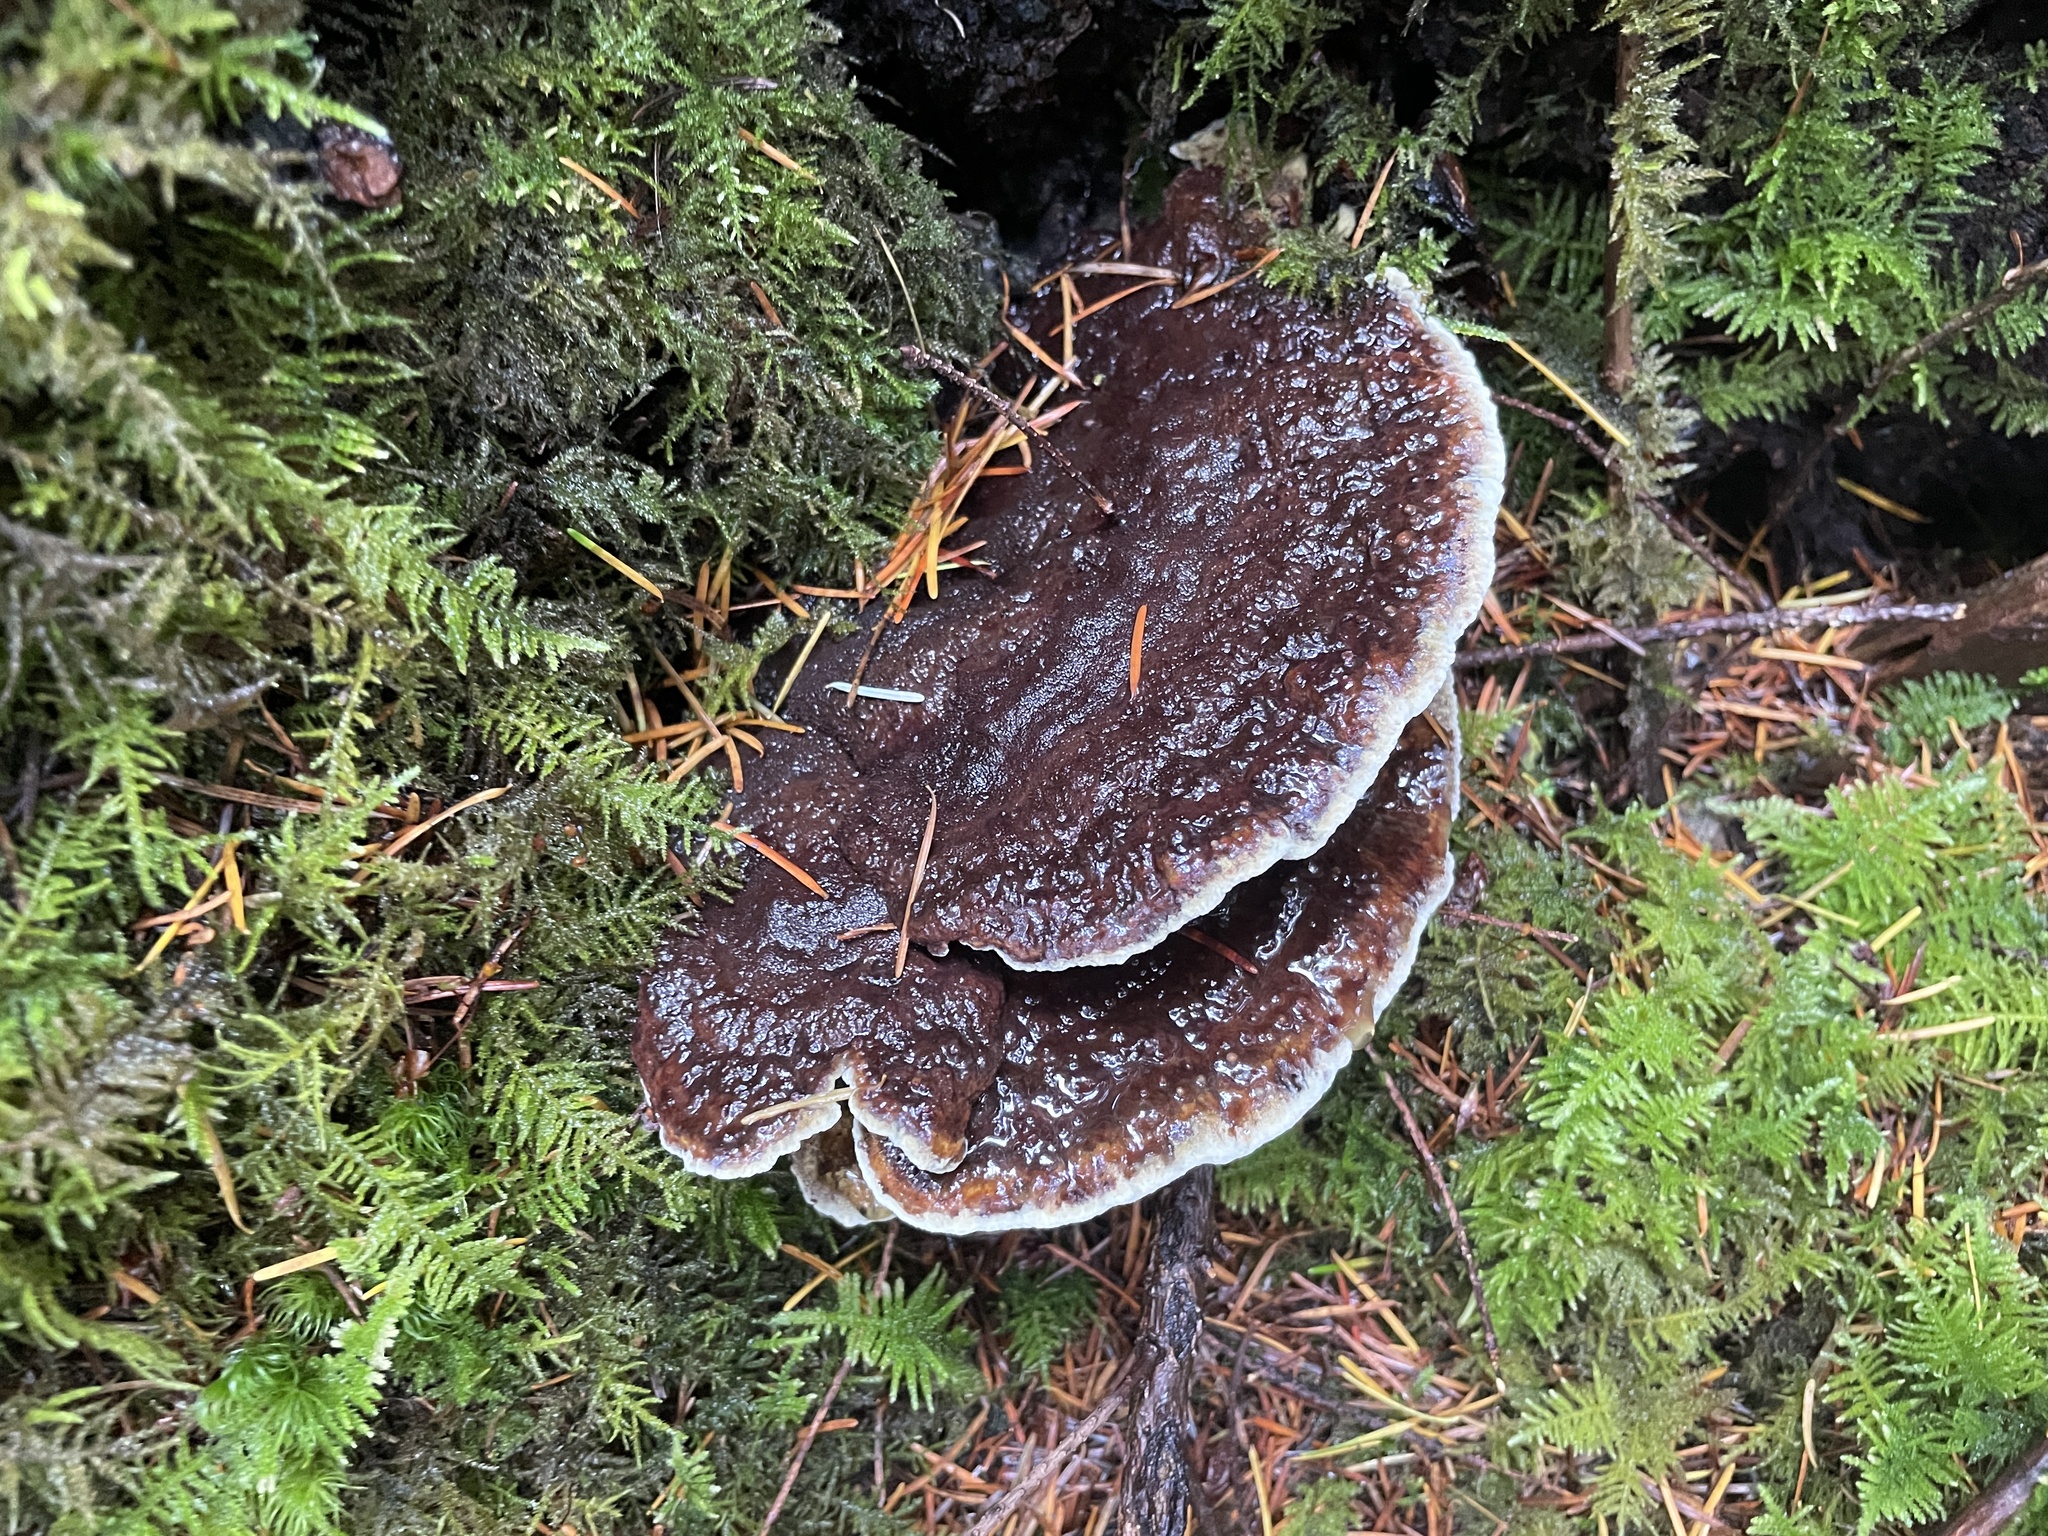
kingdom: Fungi
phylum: Basidiomycota
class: Agaricomycetes
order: Polyporales
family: Laetiporaceae
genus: Phaeolus
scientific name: Phaeolus schweinitzii
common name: Dyer's mazegill
